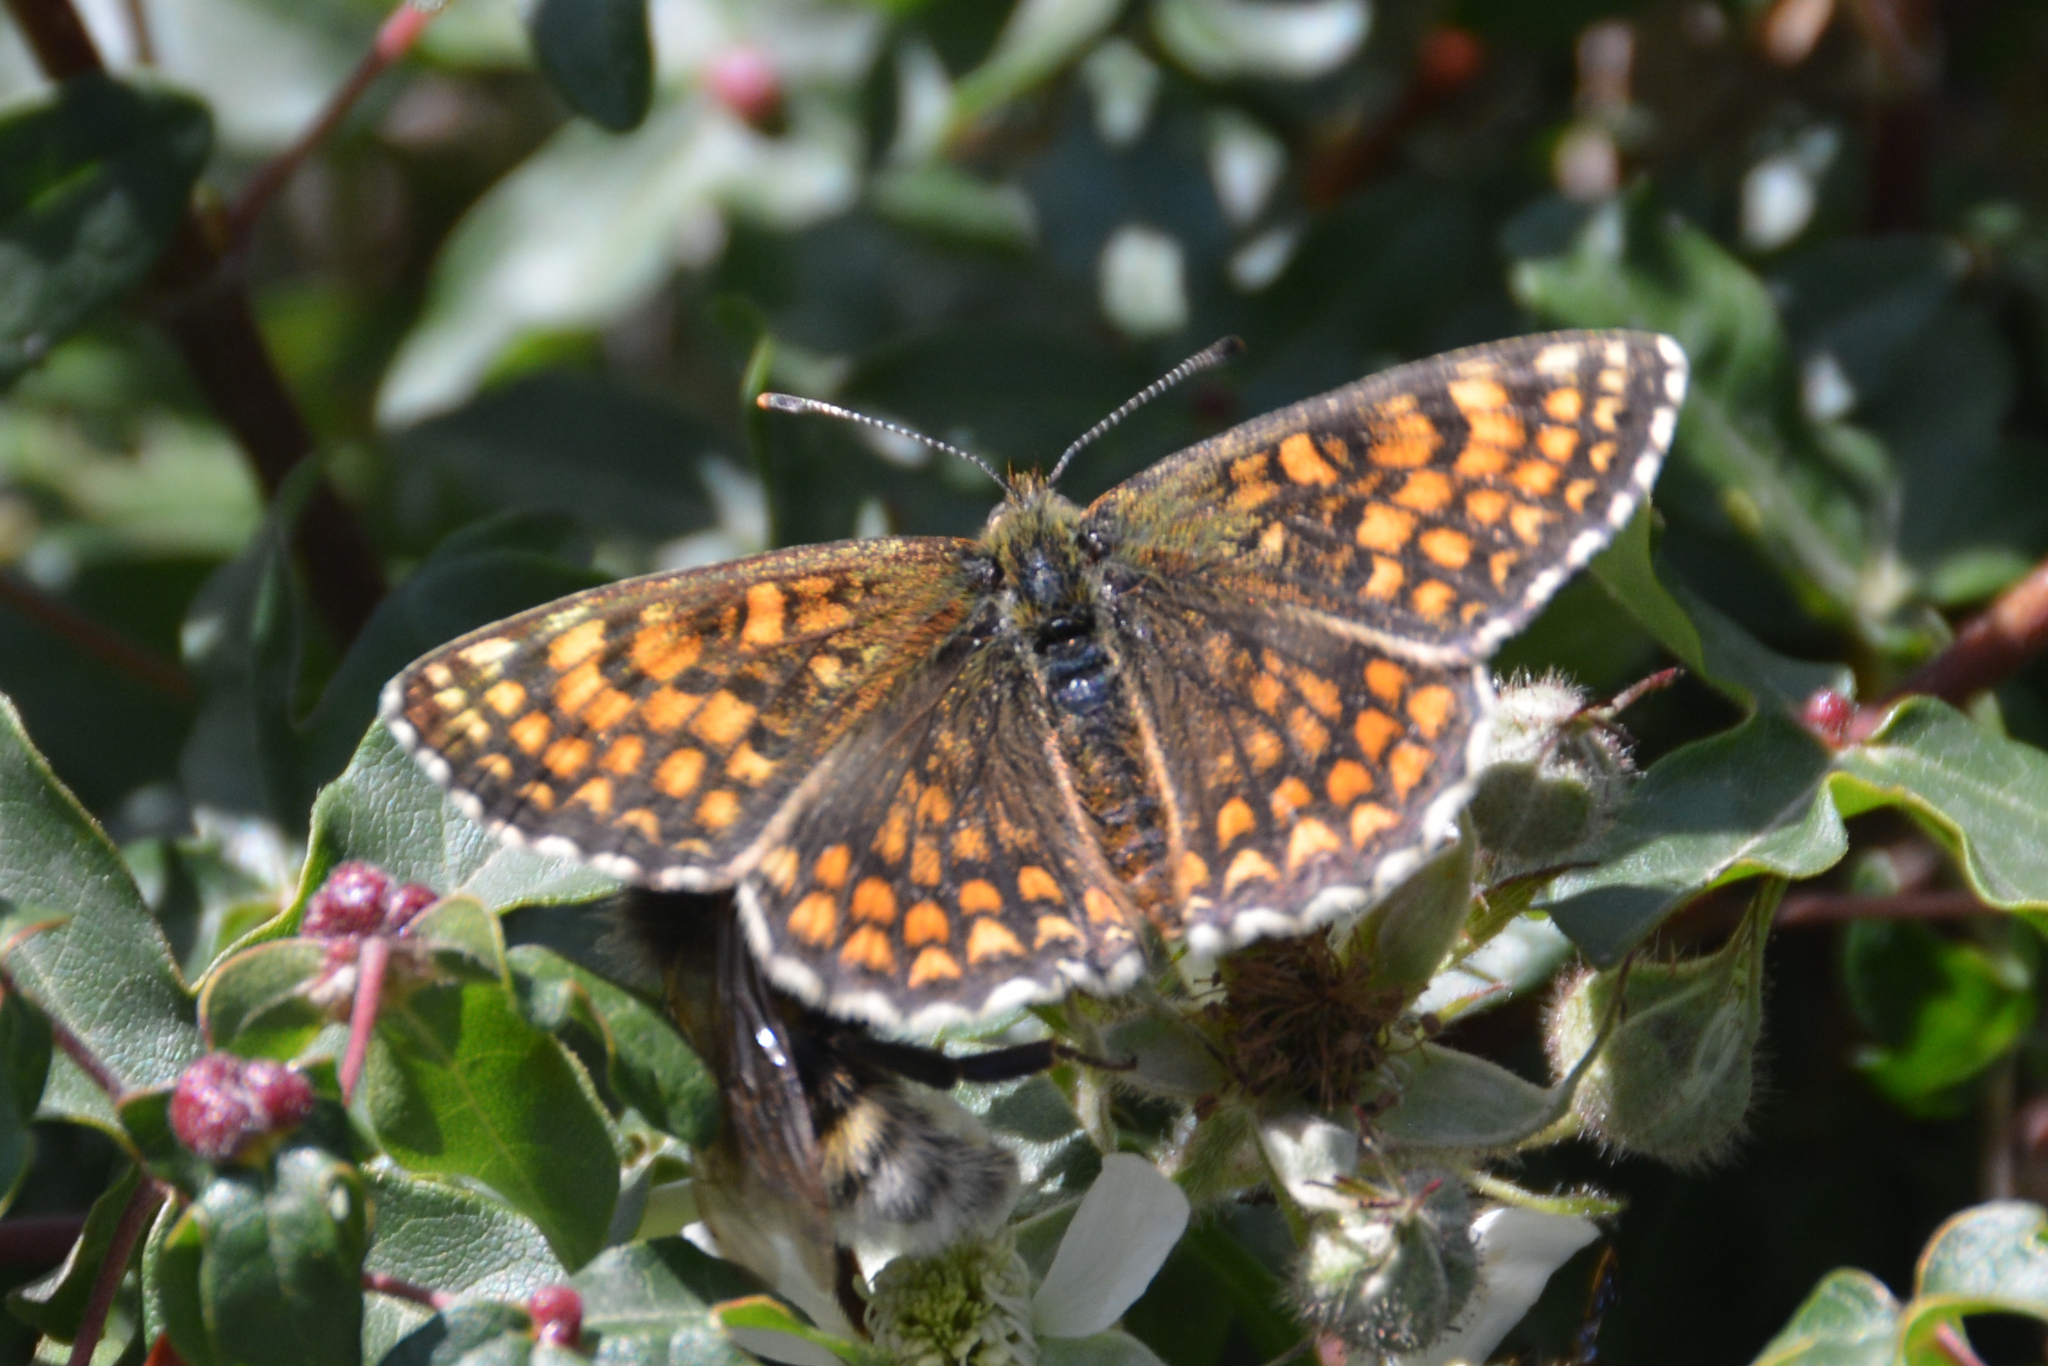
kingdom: Animalia
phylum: Arthropoda
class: Insecta
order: Lepidoptera
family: Nymphalidae
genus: Mellicta
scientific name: Mellicta athalia
